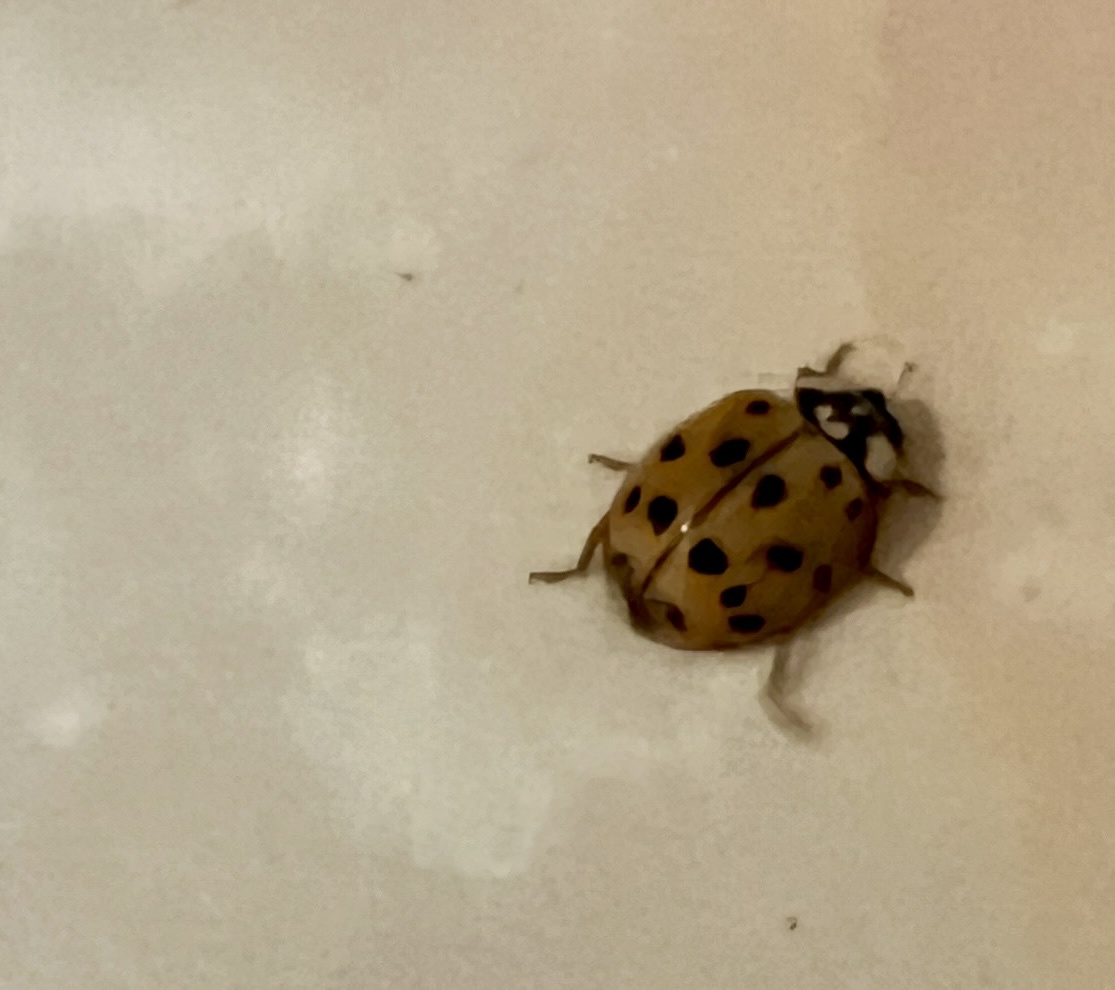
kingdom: Animalia
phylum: Arthropoda
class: Insecta
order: Coleoptera
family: Coccinellidae
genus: Harmonia
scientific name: Harmonia axyridis
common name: Harlequin ladybird
